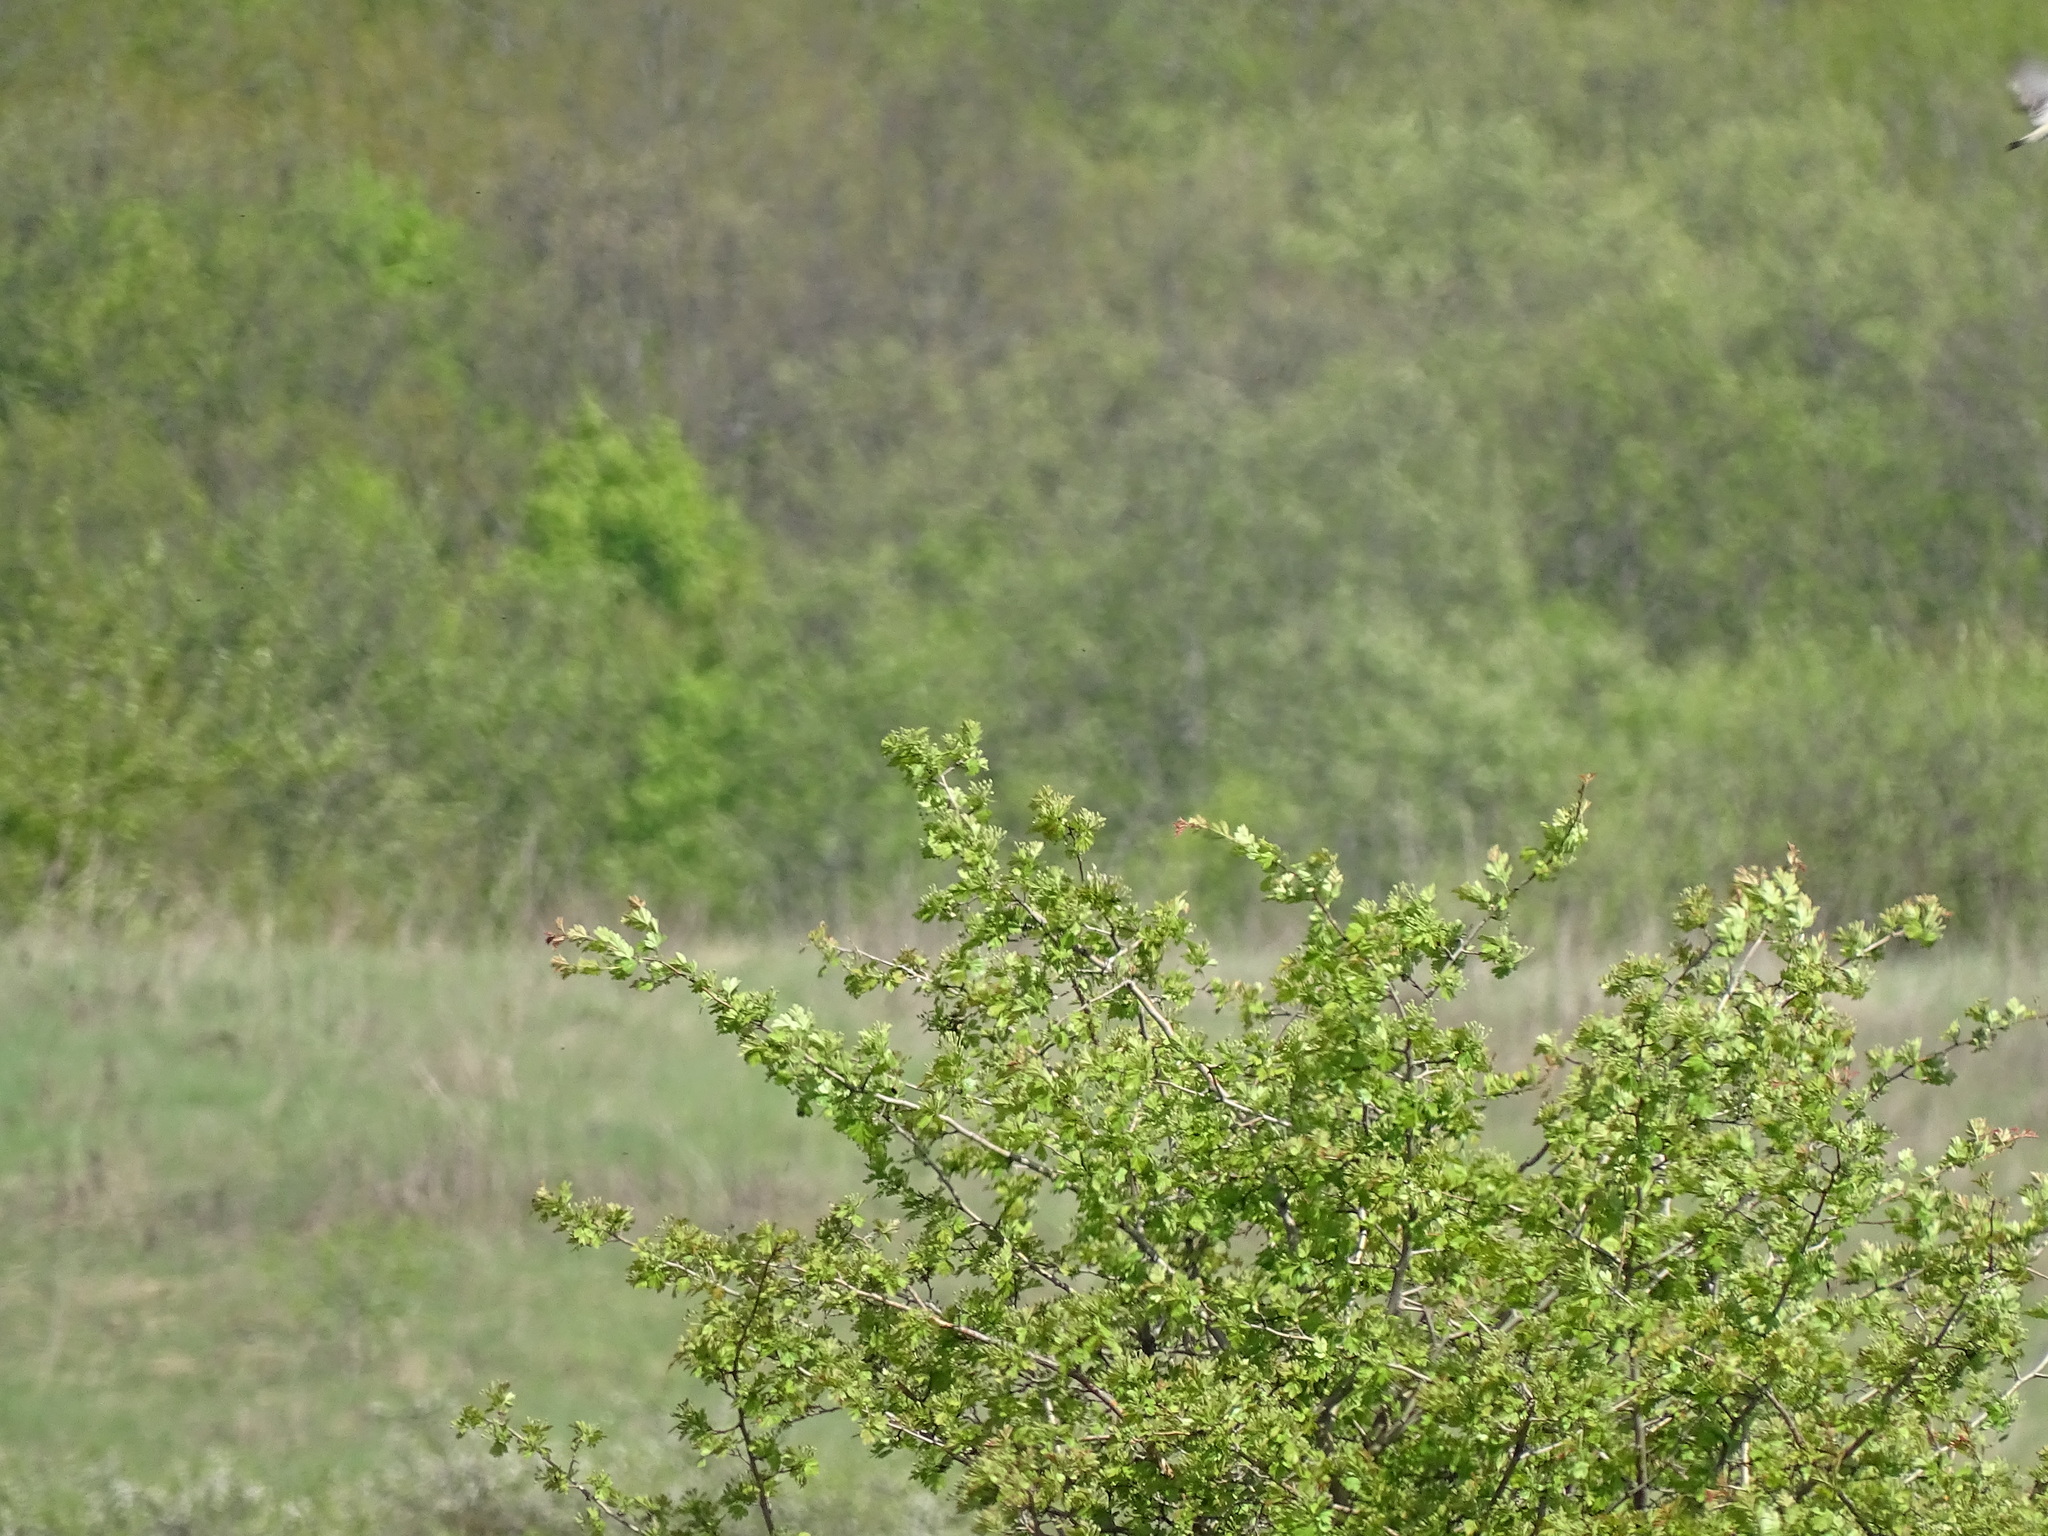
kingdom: Animalia
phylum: Chordata
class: Aves
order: Passeriformes
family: Muscicapidae
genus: Saxicola
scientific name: Saxicola rubetra
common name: Whinchat
